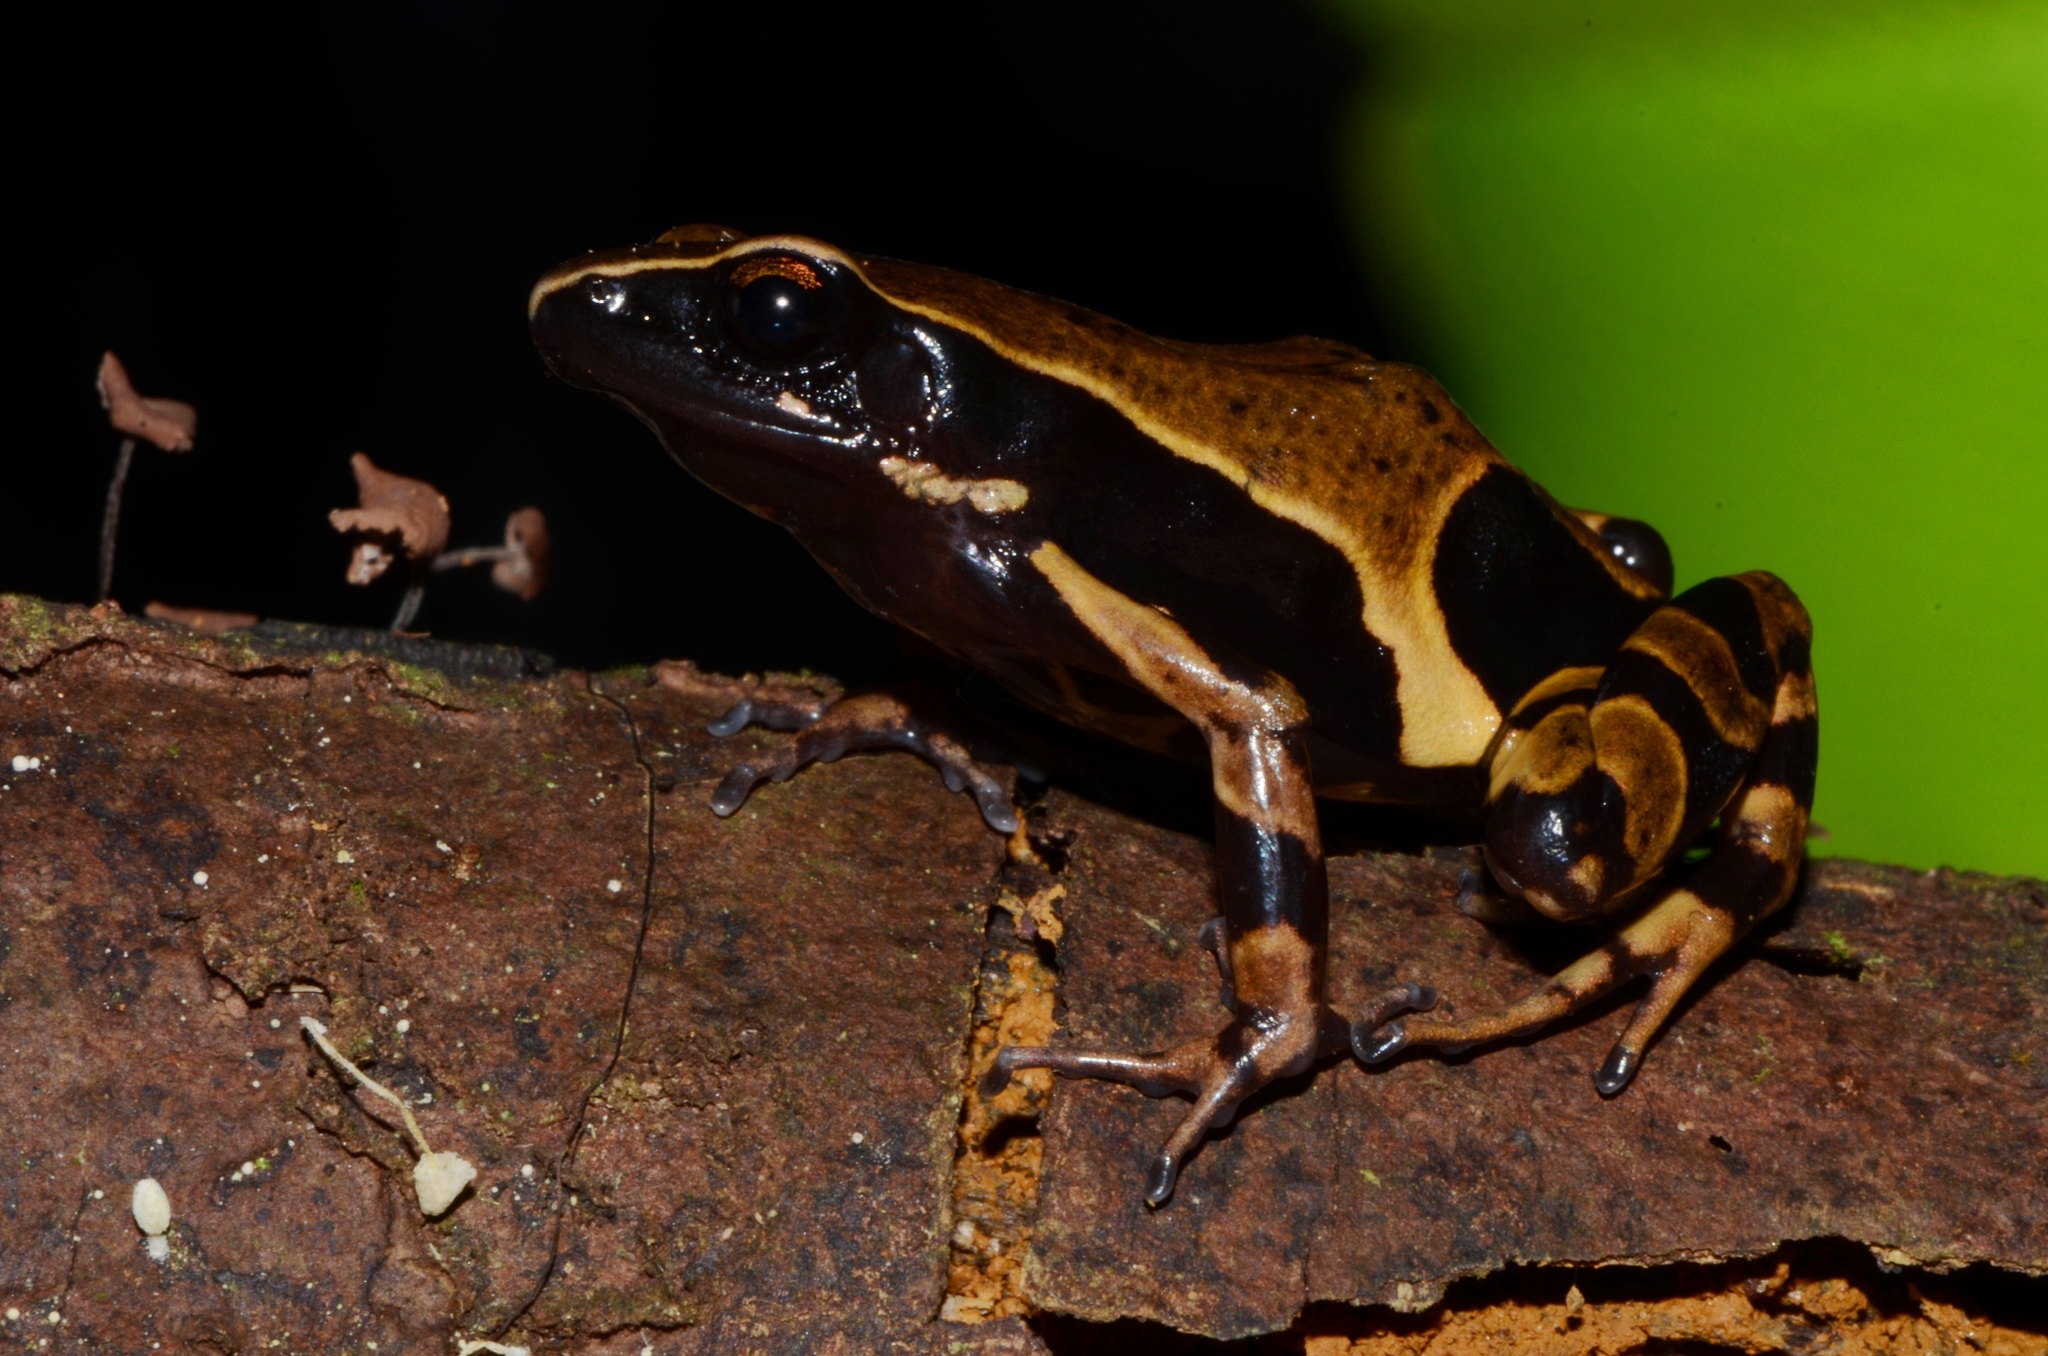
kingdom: Animalia
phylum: Chordata
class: Amphibia
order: Anura
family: Arthroleptidae
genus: Cardioglossa
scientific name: Cardioglossa annulata
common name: Annulated long-fingered frog
